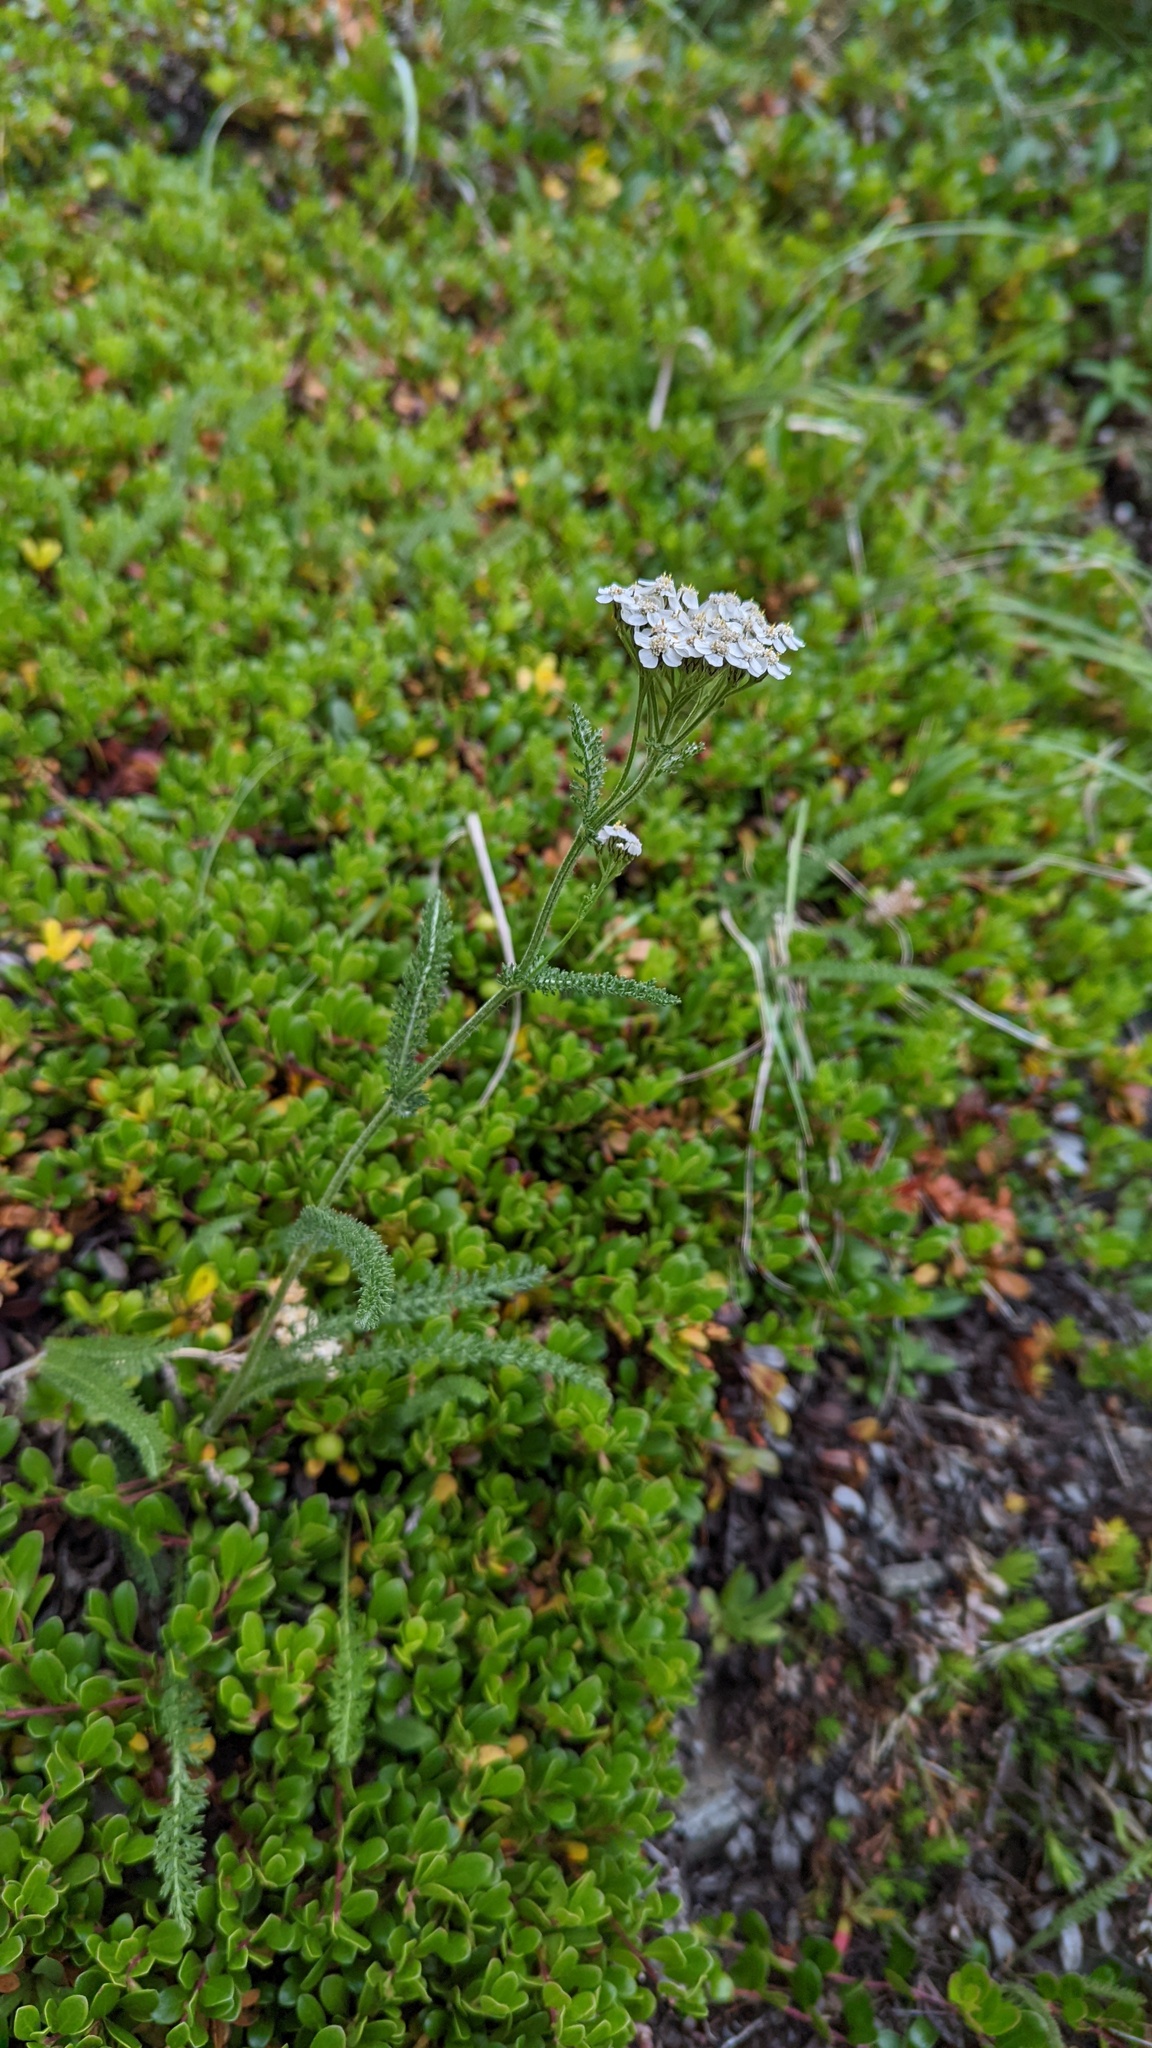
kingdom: Plantae
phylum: Tracheophyta
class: Magnoliopsida
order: Asterales
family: Asteraceae
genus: Achillea
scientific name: Achillea millefolium
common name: Yarrow
